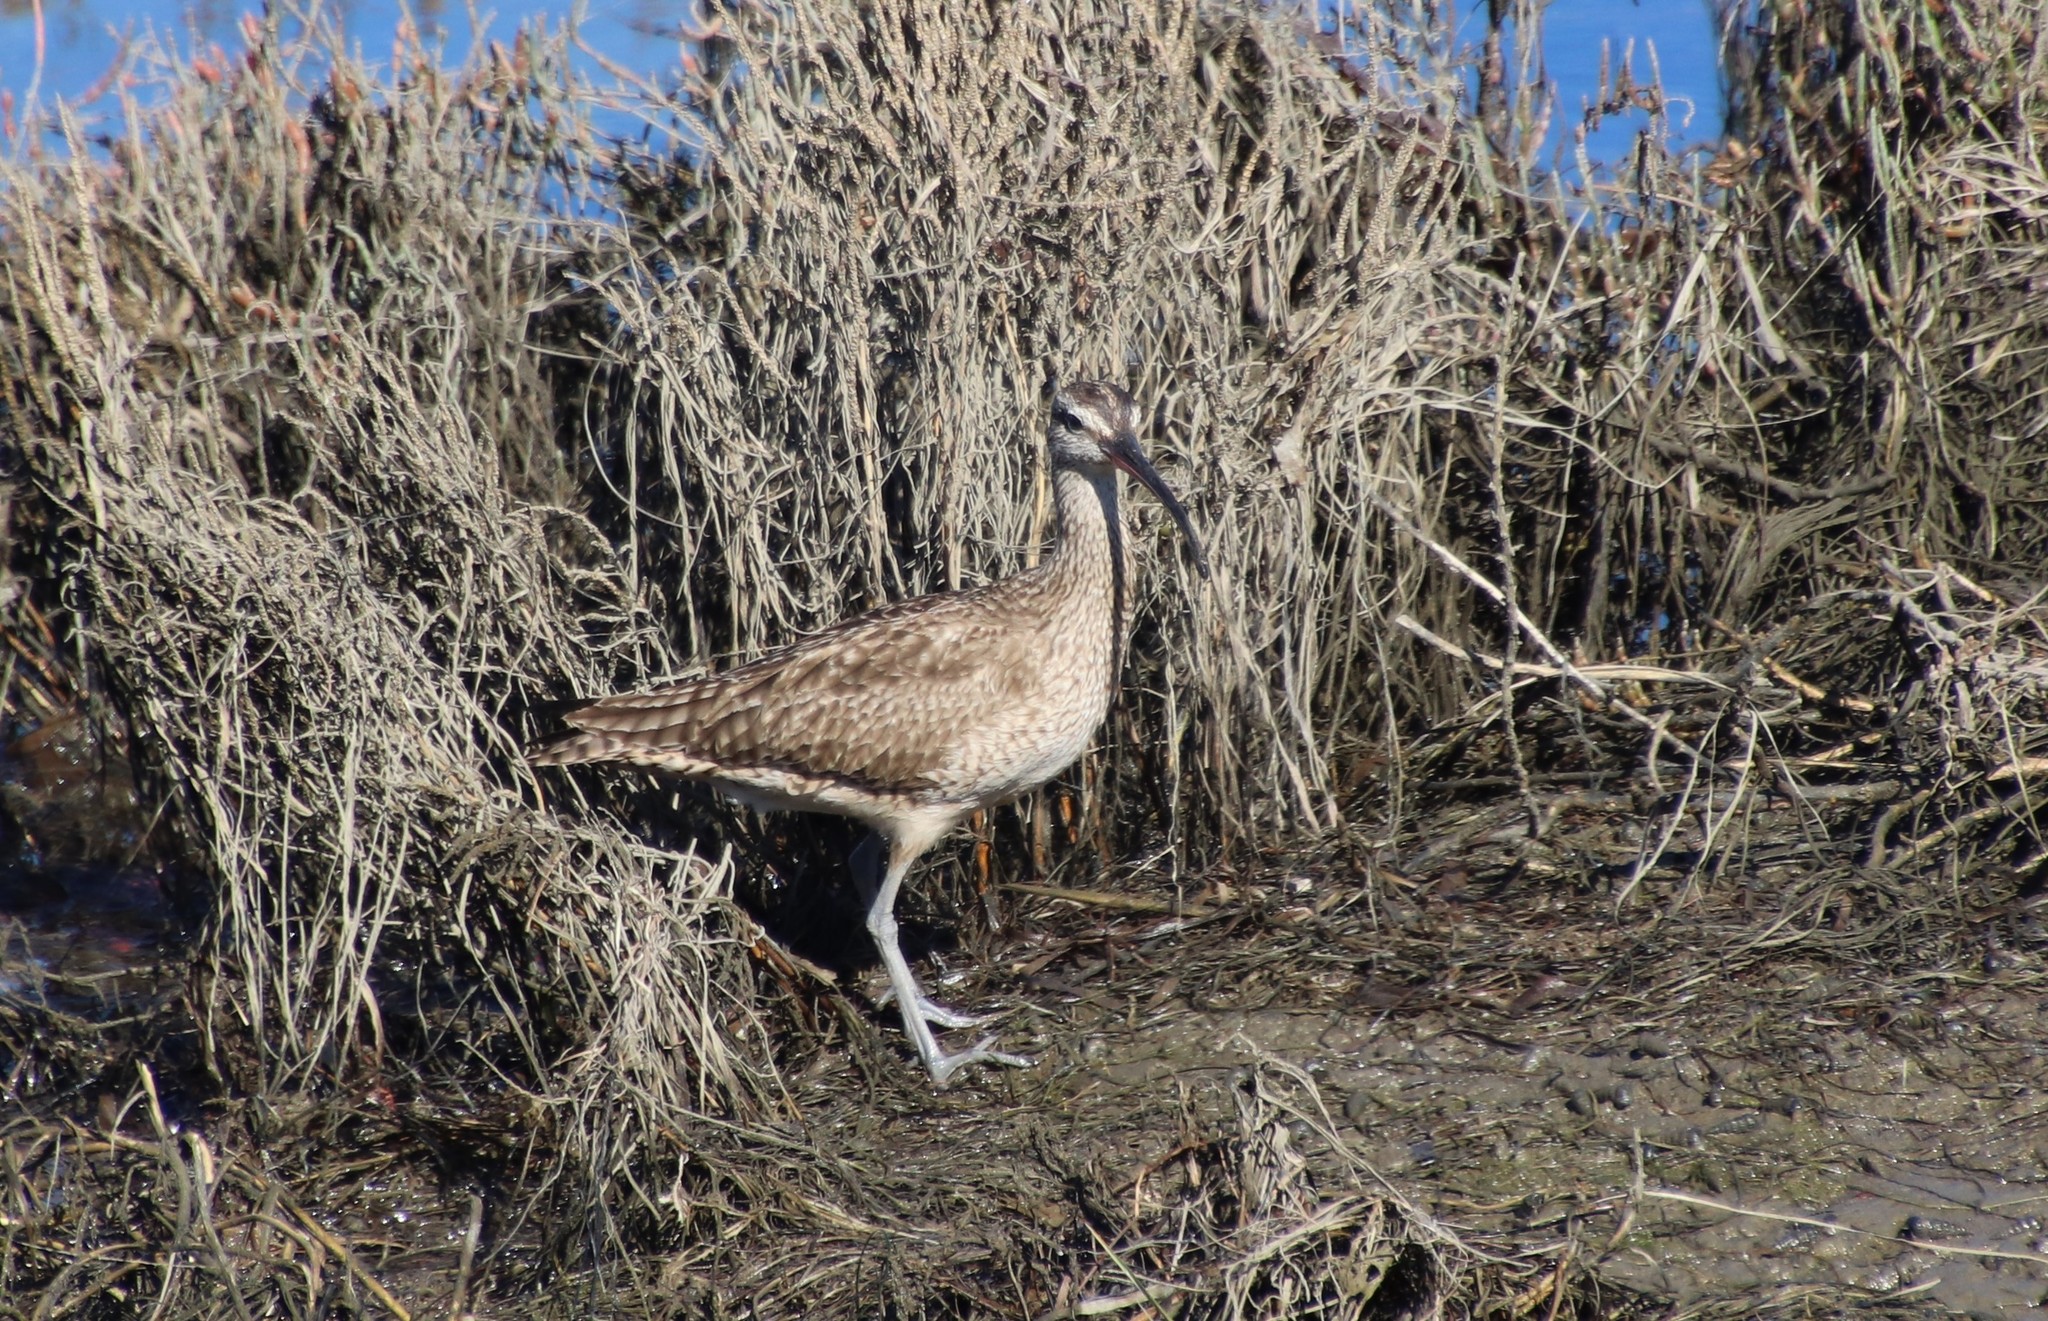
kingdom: Animalia
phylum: Chordata
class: Aves
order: Charadriiformes
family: Scolopacidae
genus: Numenius
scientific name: Numenius phaeopus
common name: Whimbrel
